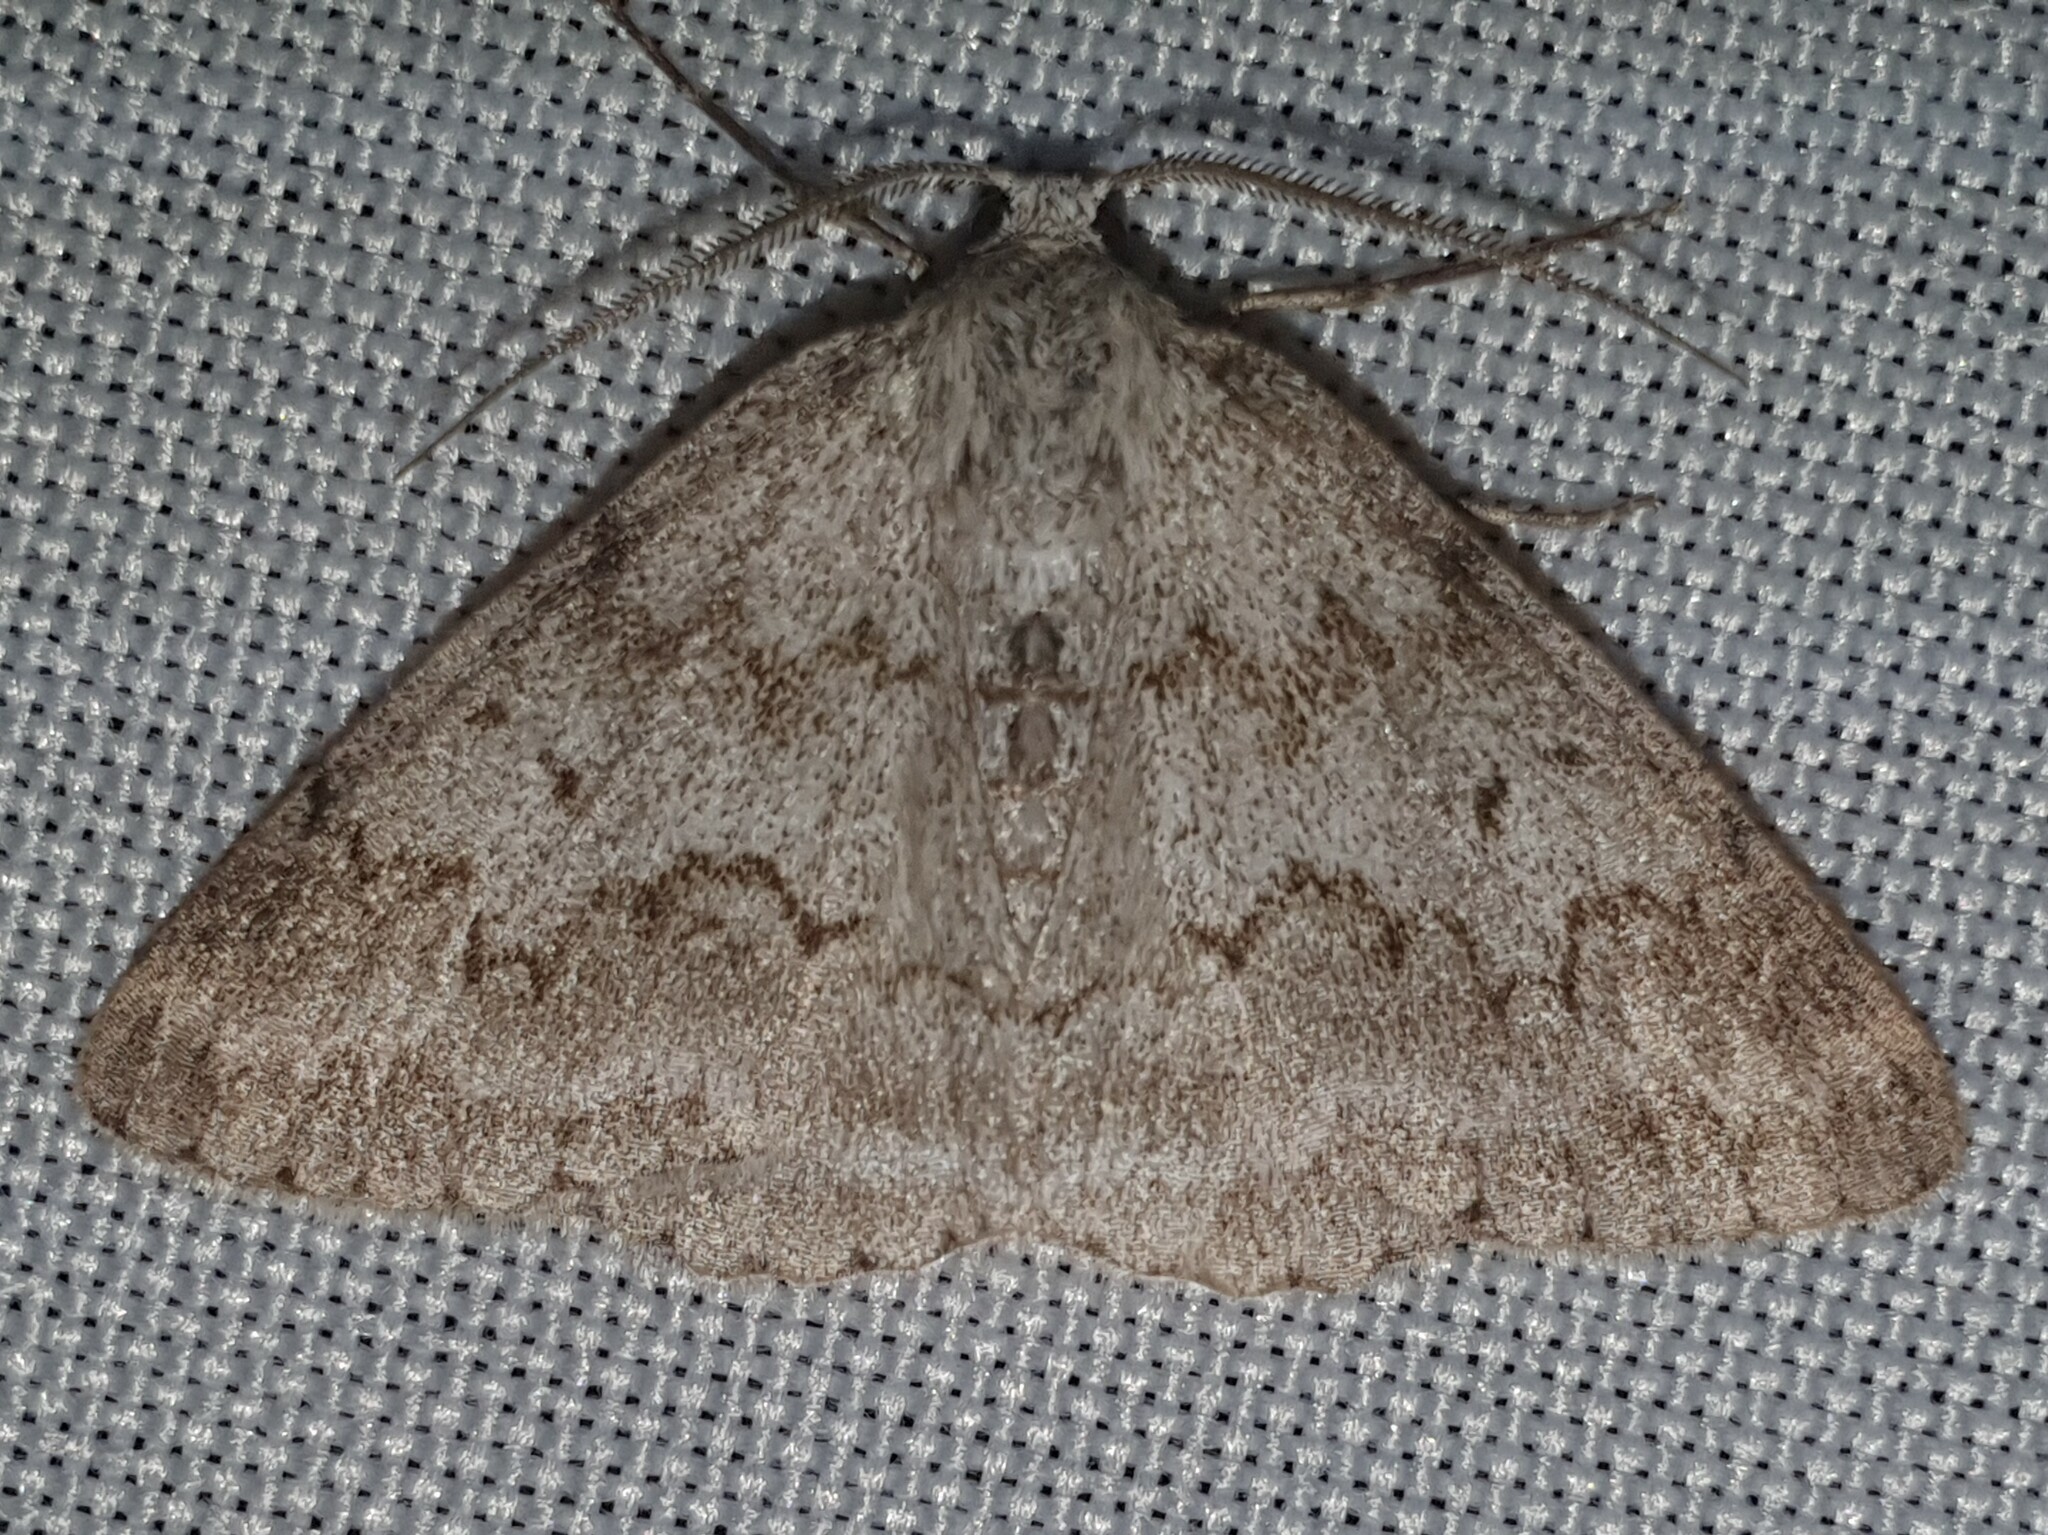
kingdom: Animalia
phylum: Arthropoda
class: Insecta
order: Lepidoptera
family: Geometridae
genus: Pseudoterpna
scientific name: Pseudoterpna coronillaria
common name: Jersey emerald
